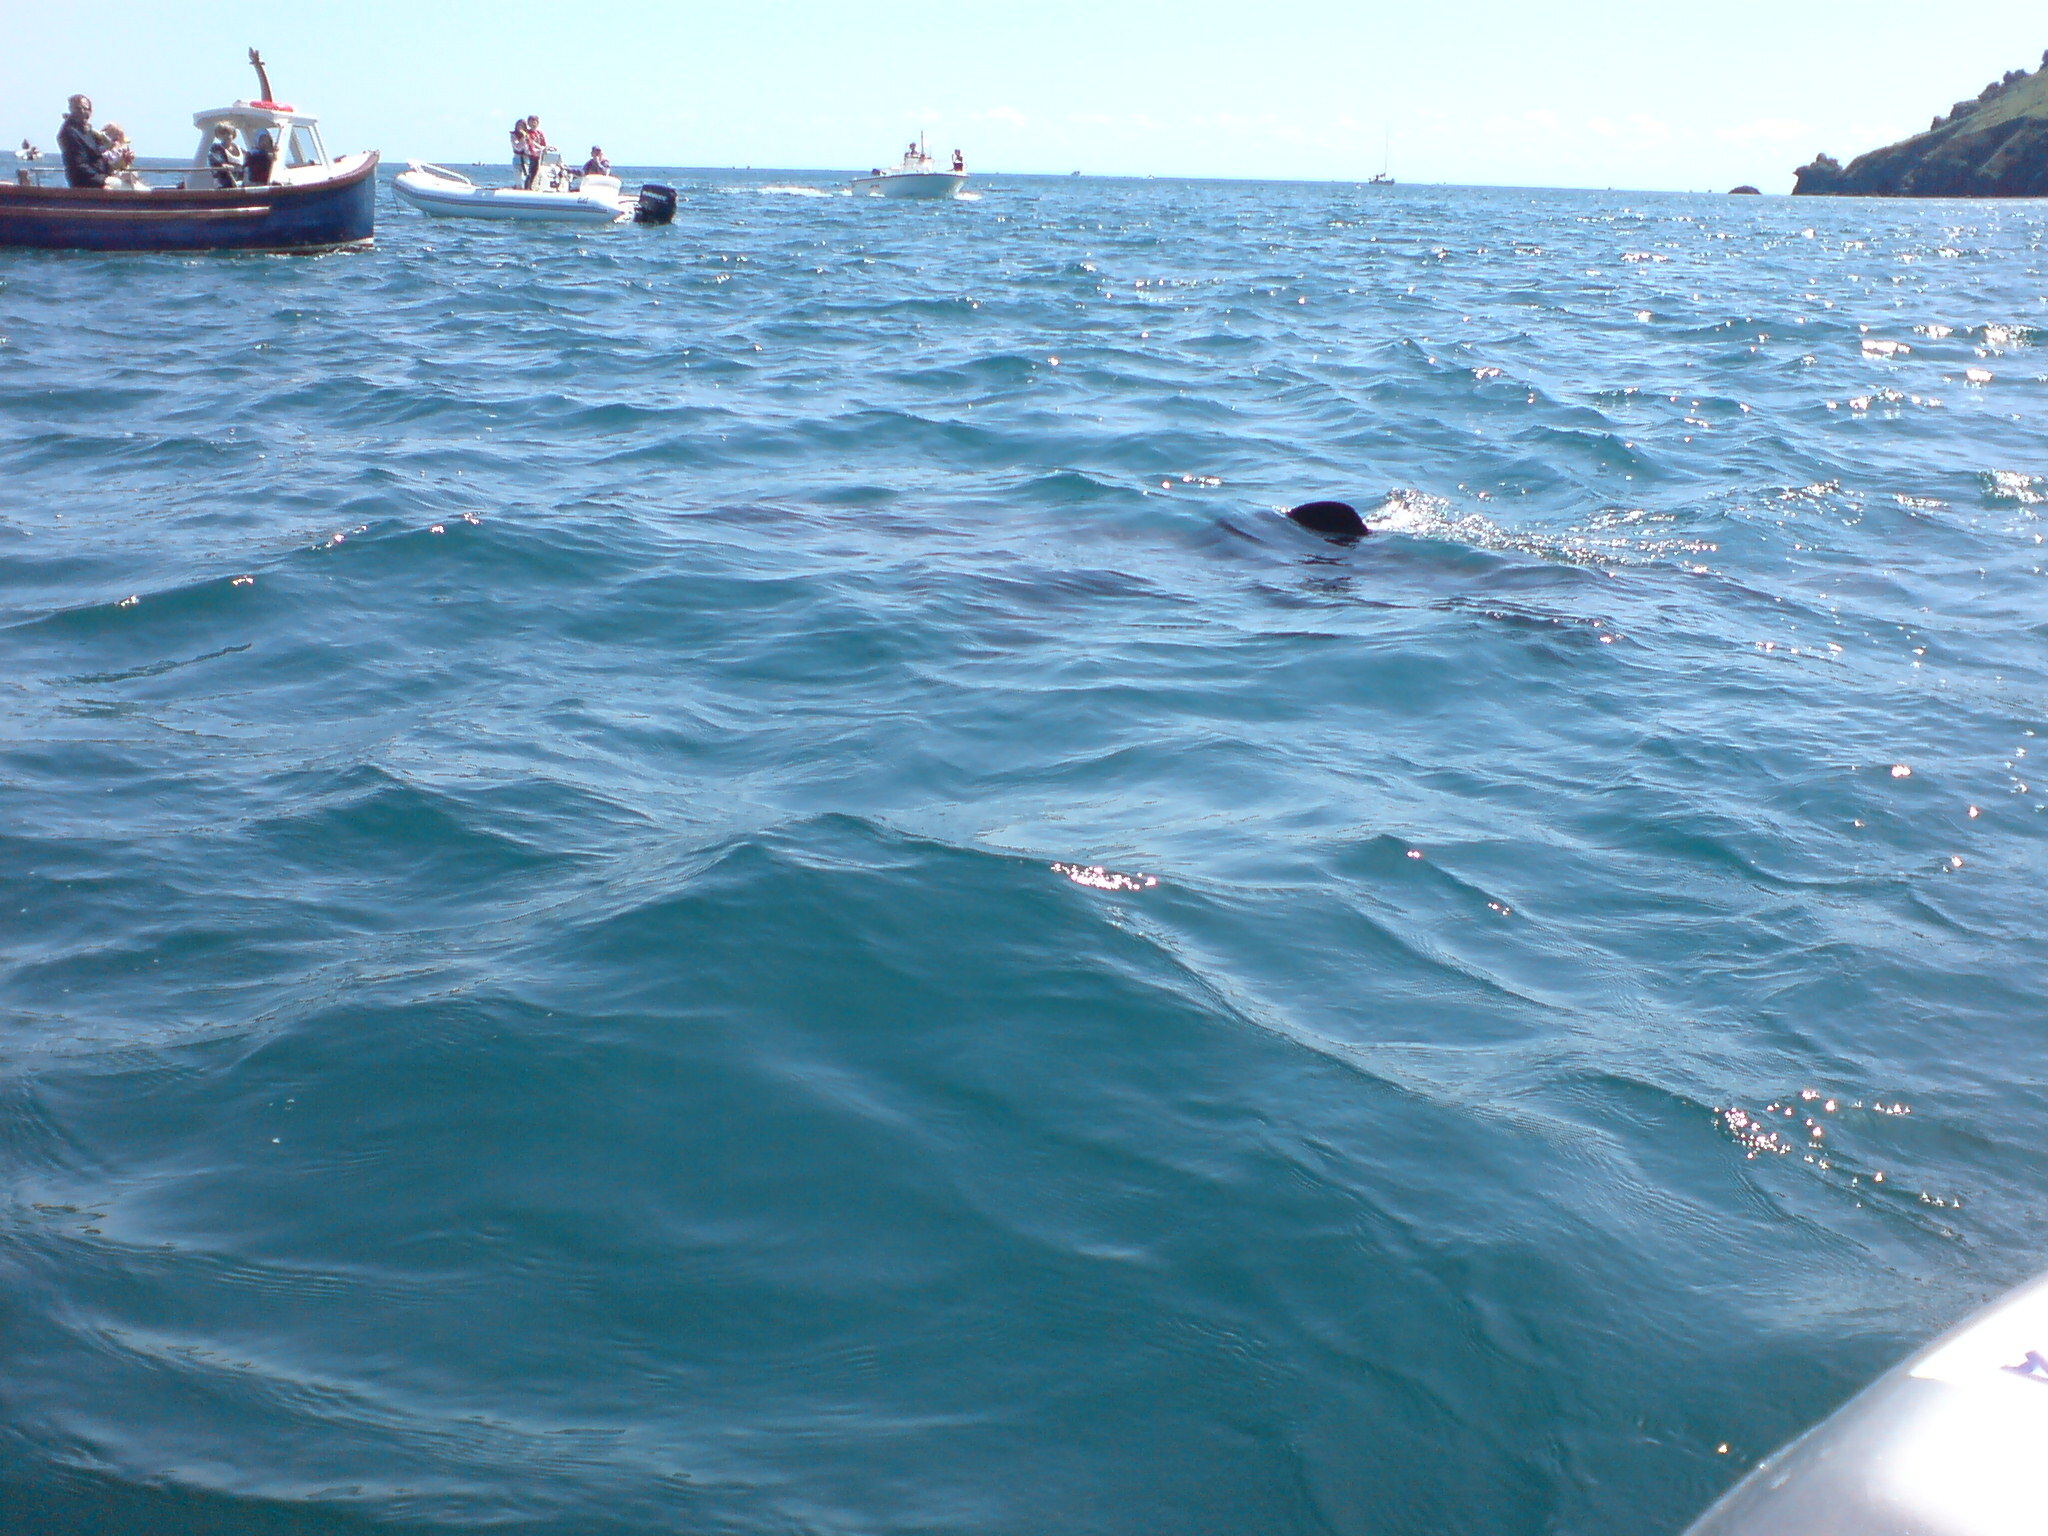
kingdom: Animalia
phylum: Chordata
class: Elasmobranchii
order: Lamniformes
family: Cetorhinidae
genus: Cetorhinus
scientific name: Cetorhinus maximus
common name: Basking shark
